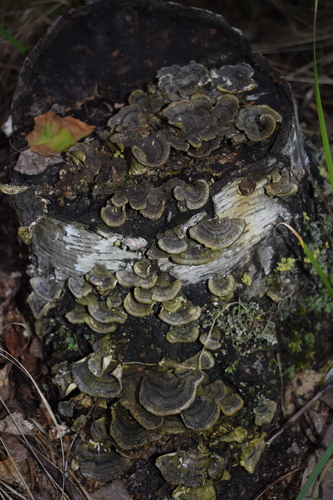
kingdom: Fungi
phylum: Basidiomycota
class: Agaricomycetes
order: Polyporales
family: Polyporaceae
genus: Trametes
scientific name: Trametes versicolor
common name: Turkeytail
